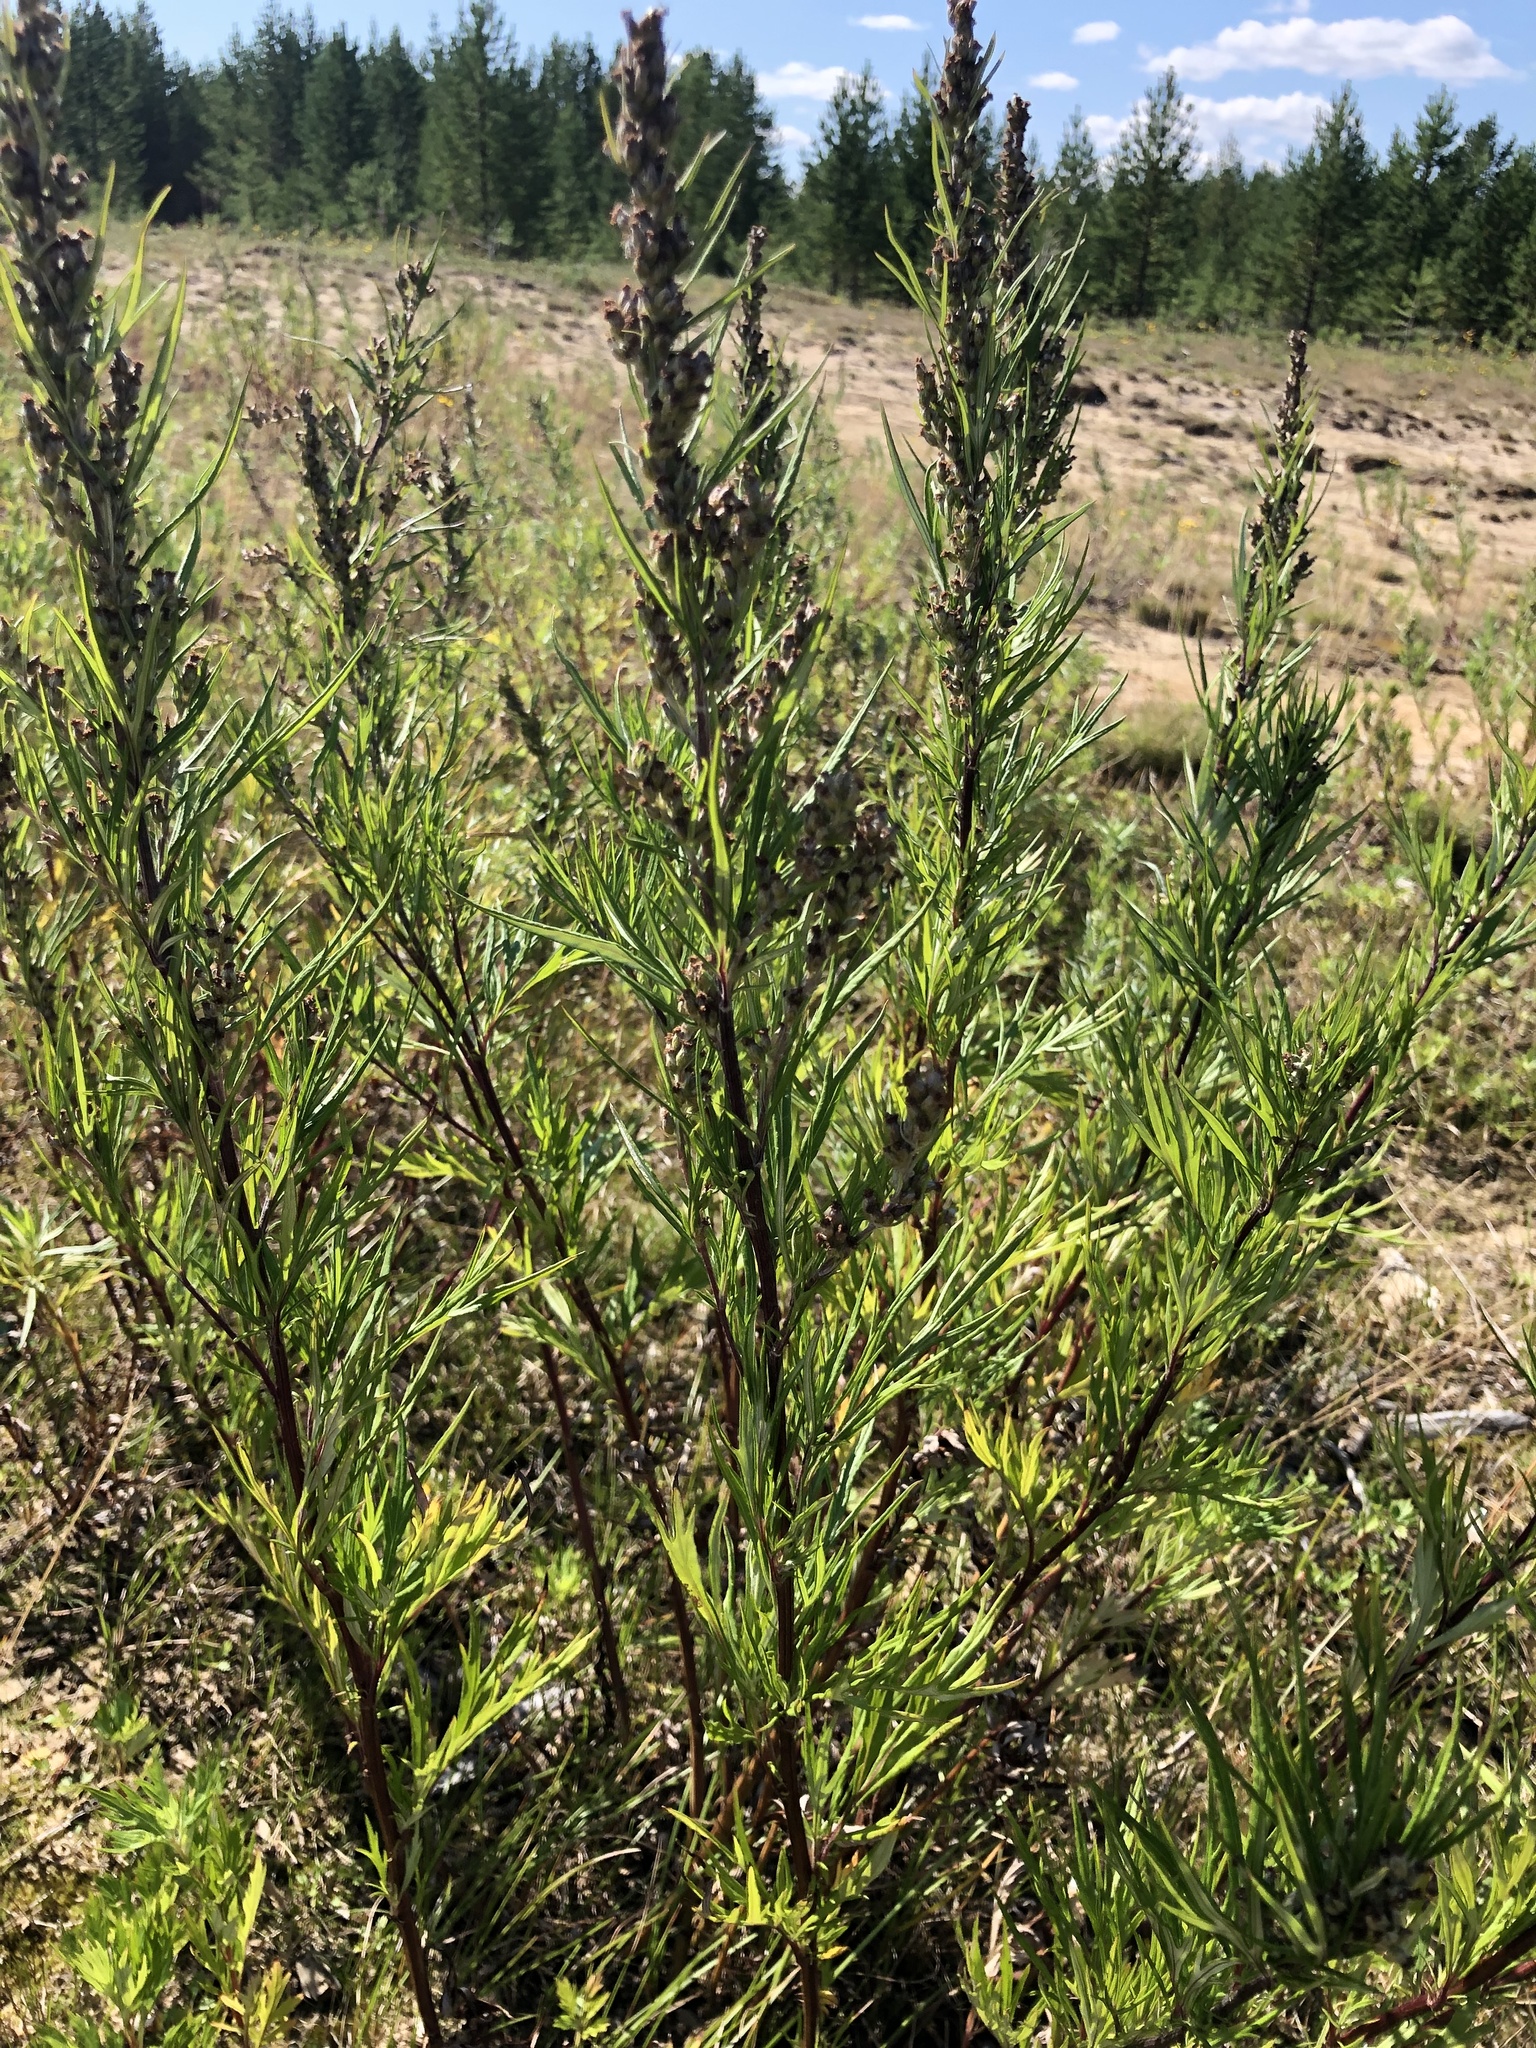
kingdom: Plantae
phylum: Tracheophyta
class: Magnoliopsida
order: Asterales
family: Asteraceae
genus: Artemisia
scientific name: Artemisia vulgaris
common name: Mugwort
